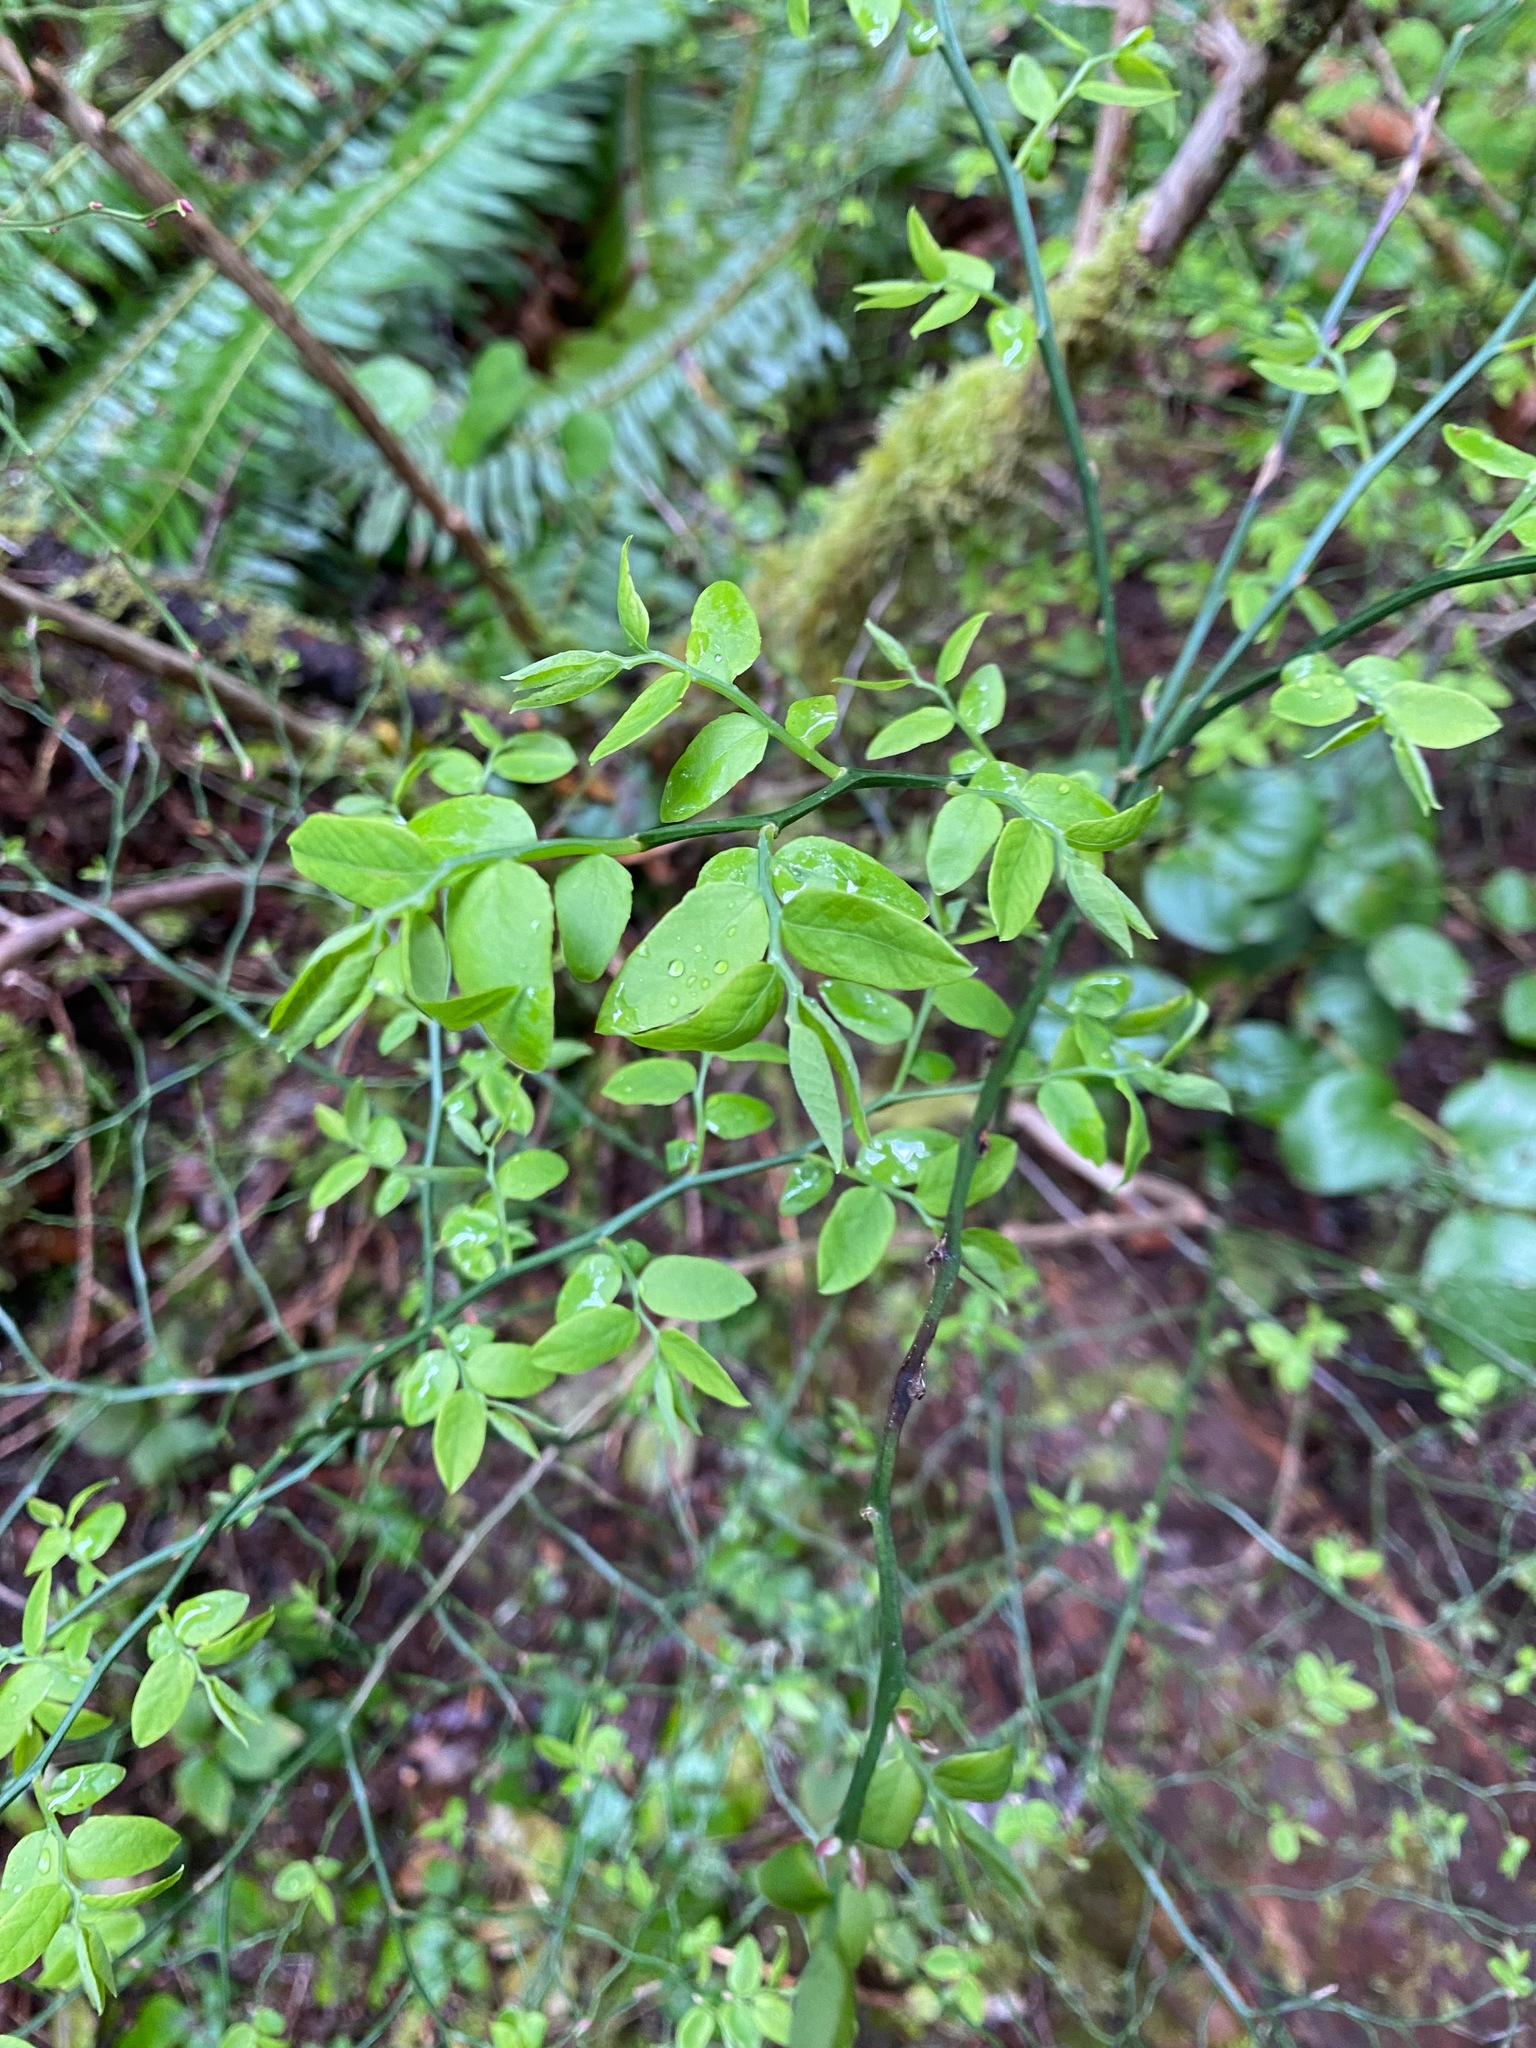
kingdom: Plantae
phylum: Tracheophyta
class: Magnoliopsida
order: Ericales
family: Ericaceae
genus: Vaccinium
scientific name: Vaccinium parvifolium
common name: Red-huckleberry
